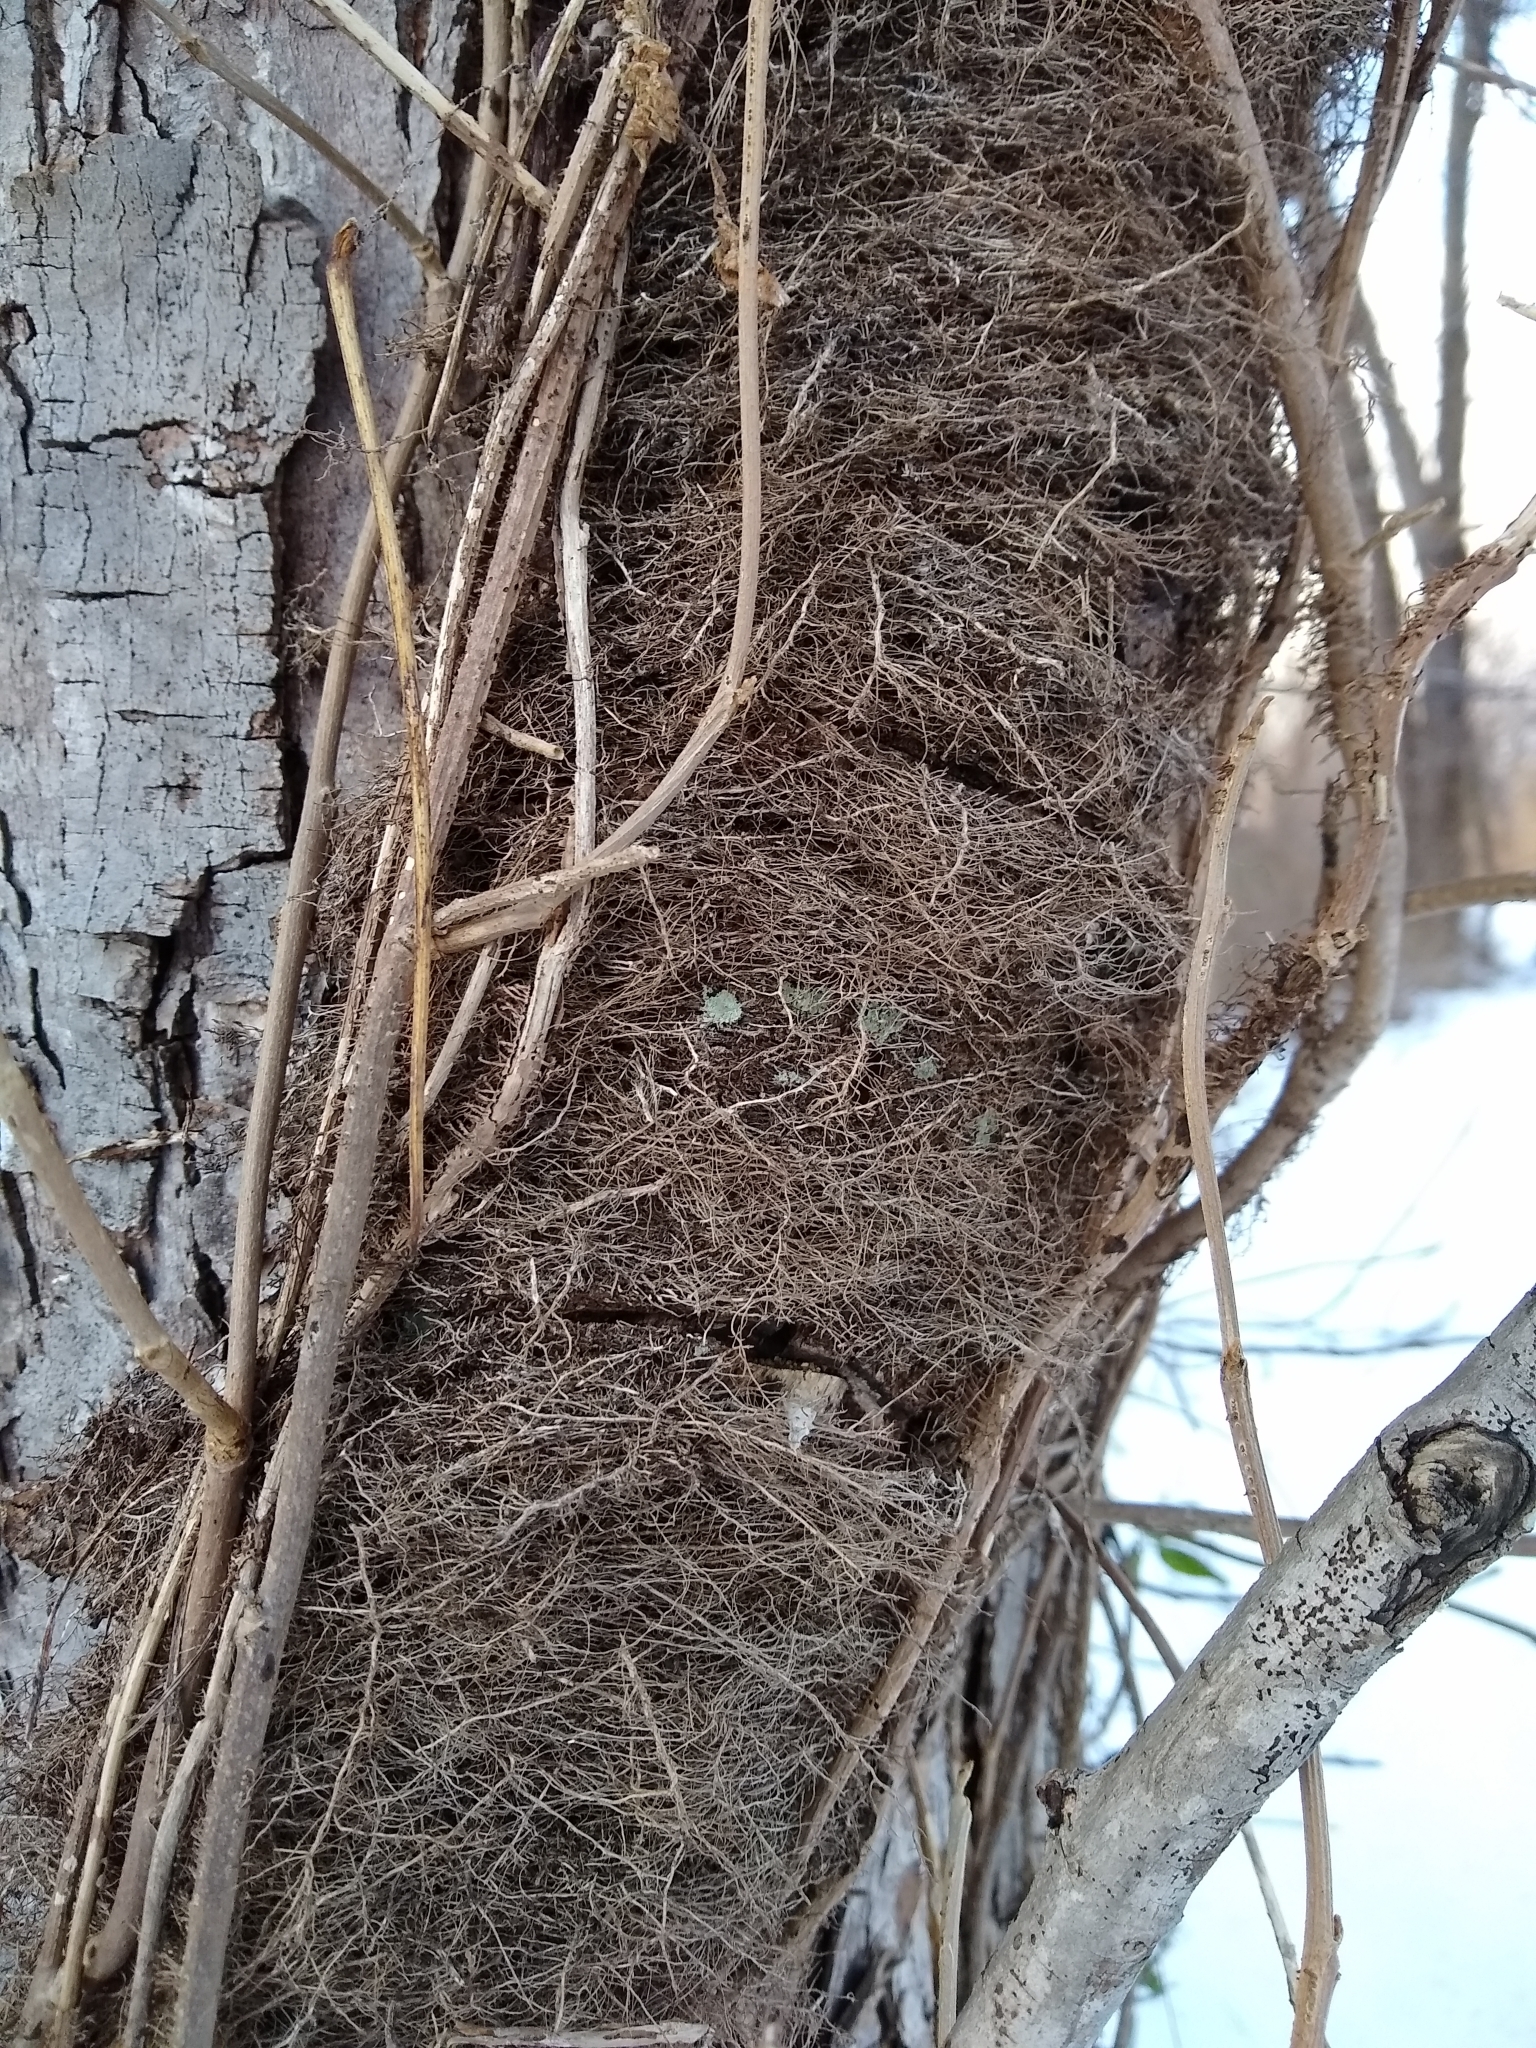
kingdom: Plantae
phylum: Tracheophyta
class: Magnoliopsida
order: Sapindales
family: Anacardiaceae
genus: Toxicodendron
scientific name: Toxicodendron radicans
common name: Poison ivy
